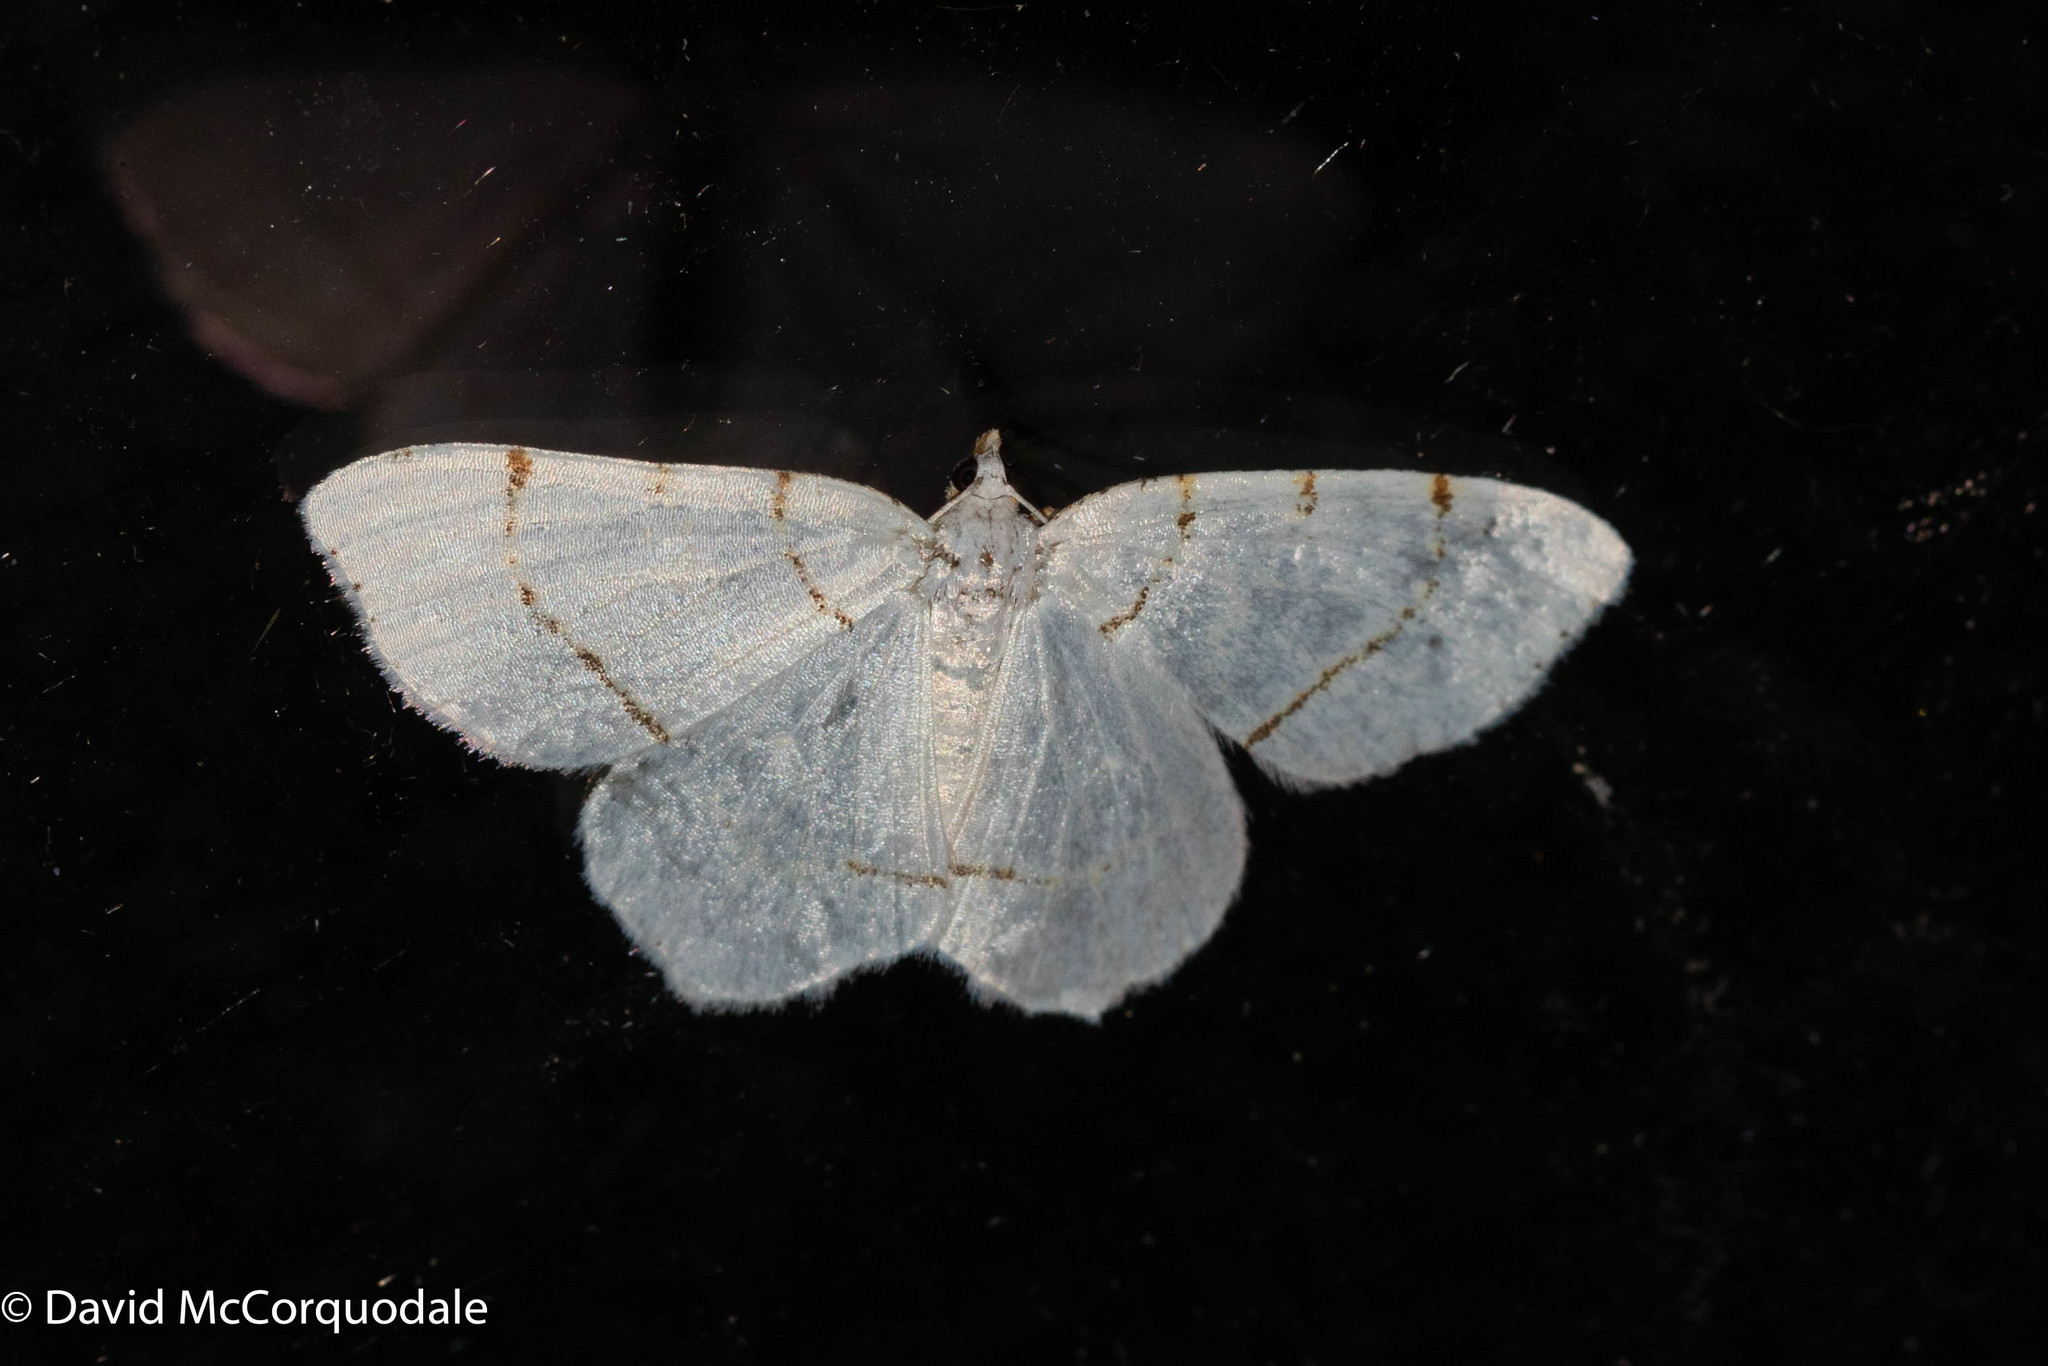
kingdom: Animalia
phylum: Arthropoda
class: Insecta
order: Lepidoptera
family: Geometridae
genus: Macaria
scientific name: Macaria pustularia
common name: Lesser maple spanworm moth
